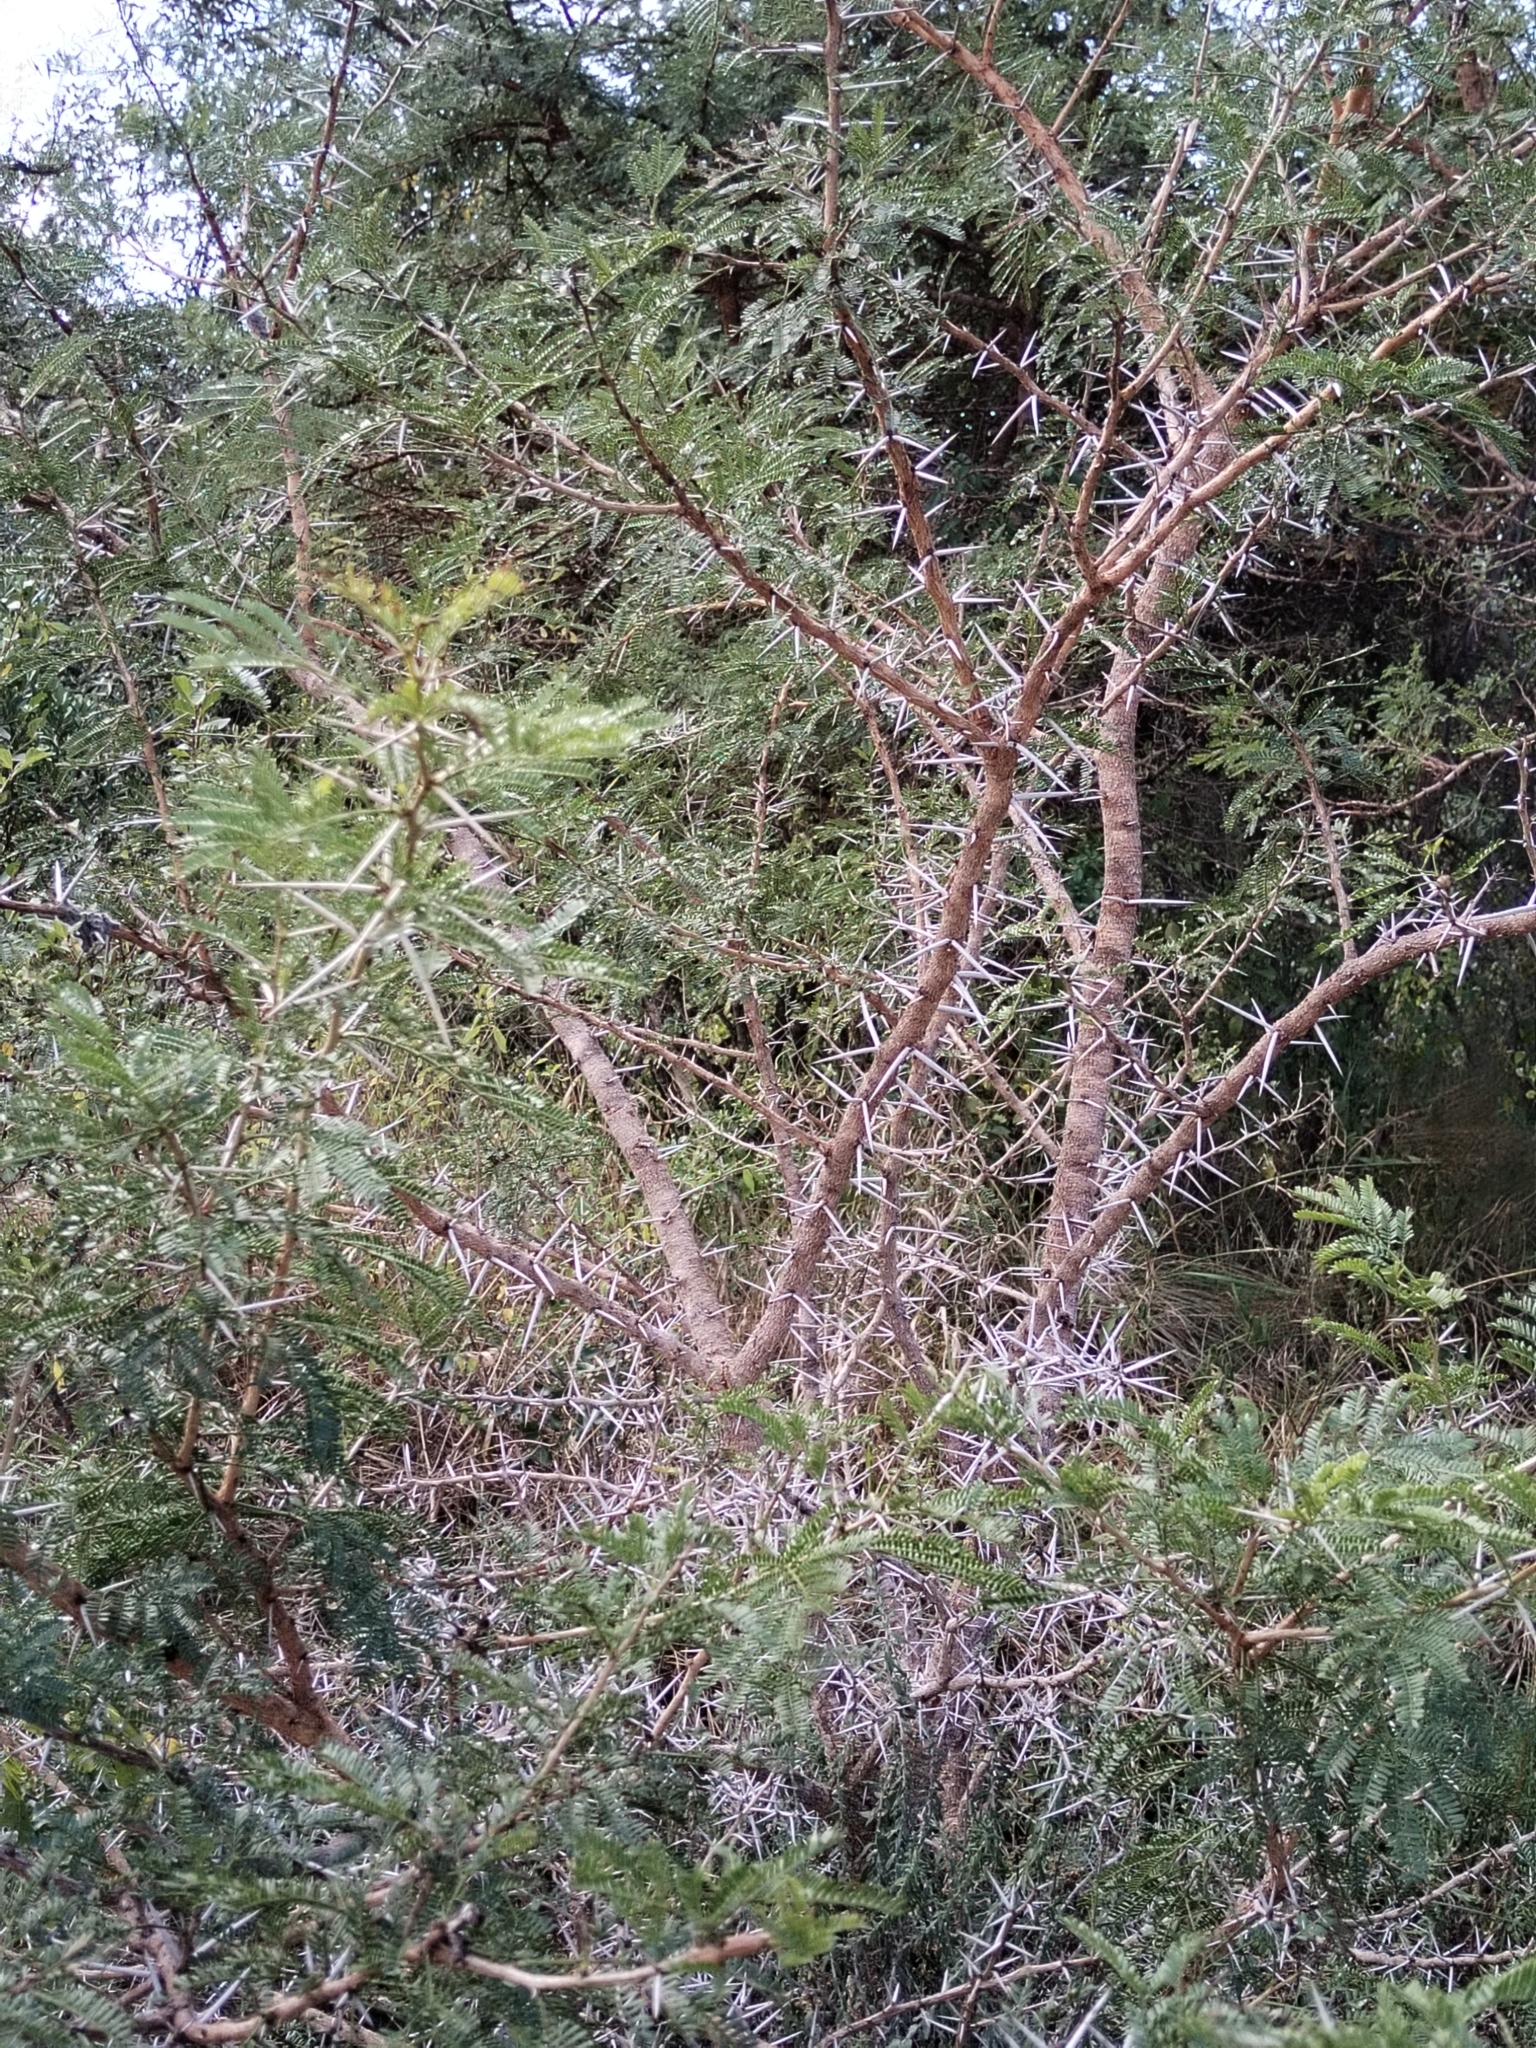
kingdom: Plantae
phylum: Tracheophyta
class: Magnoliopsida
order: Fabales
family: Fabaceae
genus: Vachellia
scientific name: Vachellia karroo
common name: Sweet thorn
